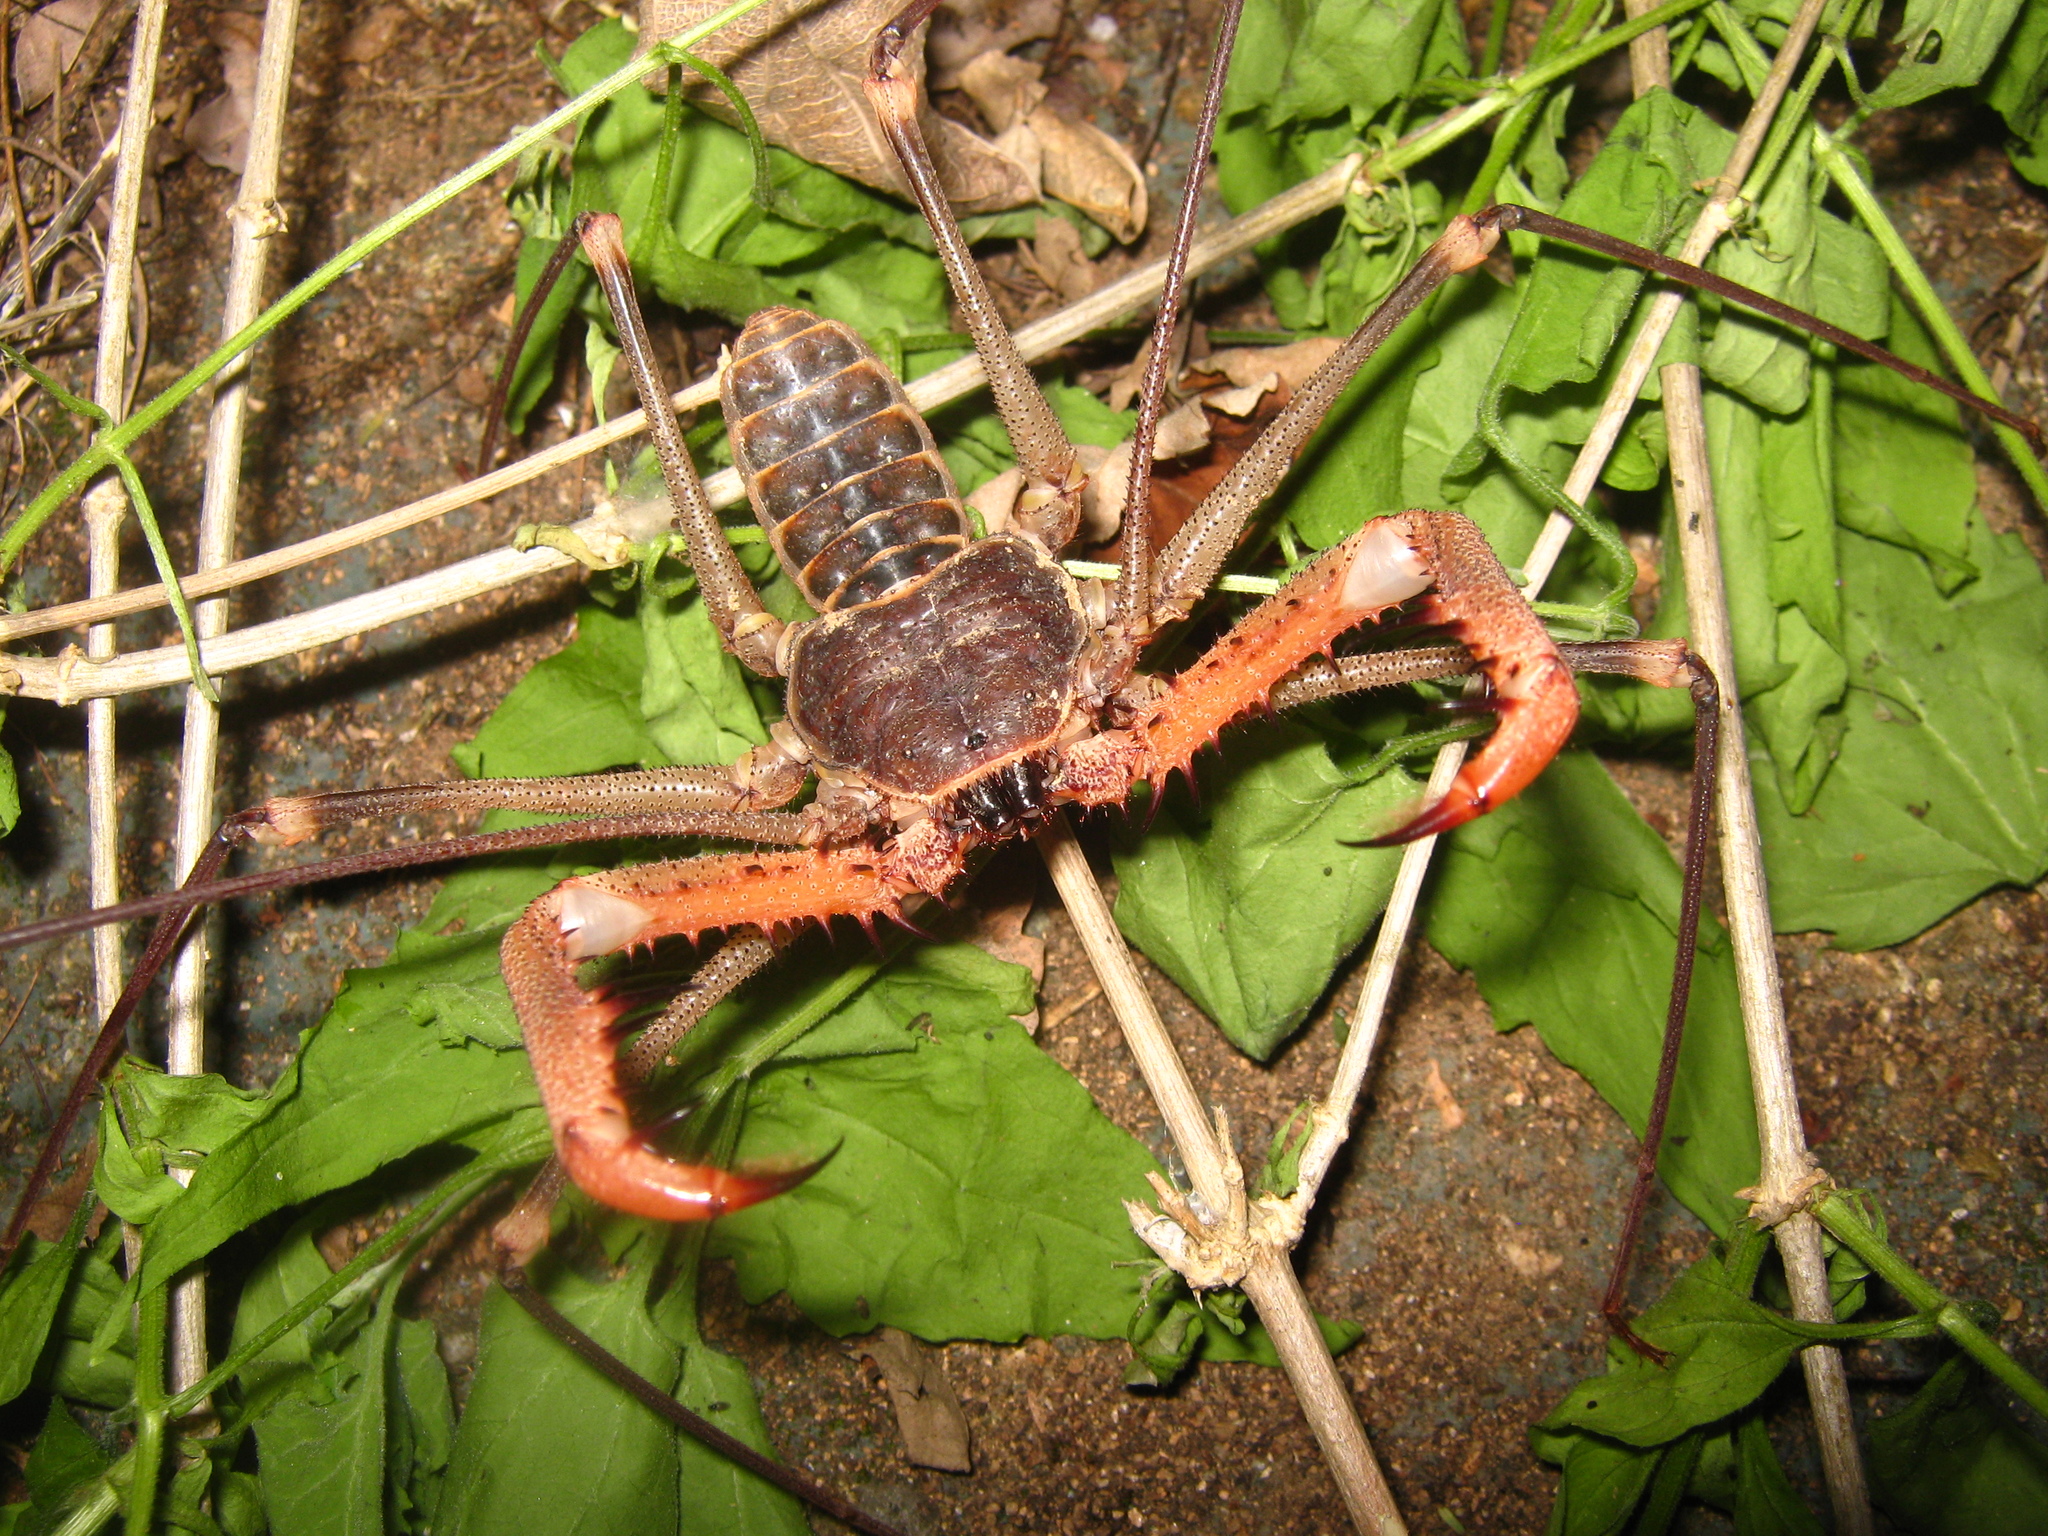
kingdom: Animalia
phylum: Arthropoda
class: Arachnida
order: Amblypygi
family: Phrynidae
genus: Acanthophrynus
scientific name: Acanthophrynus coronatus
